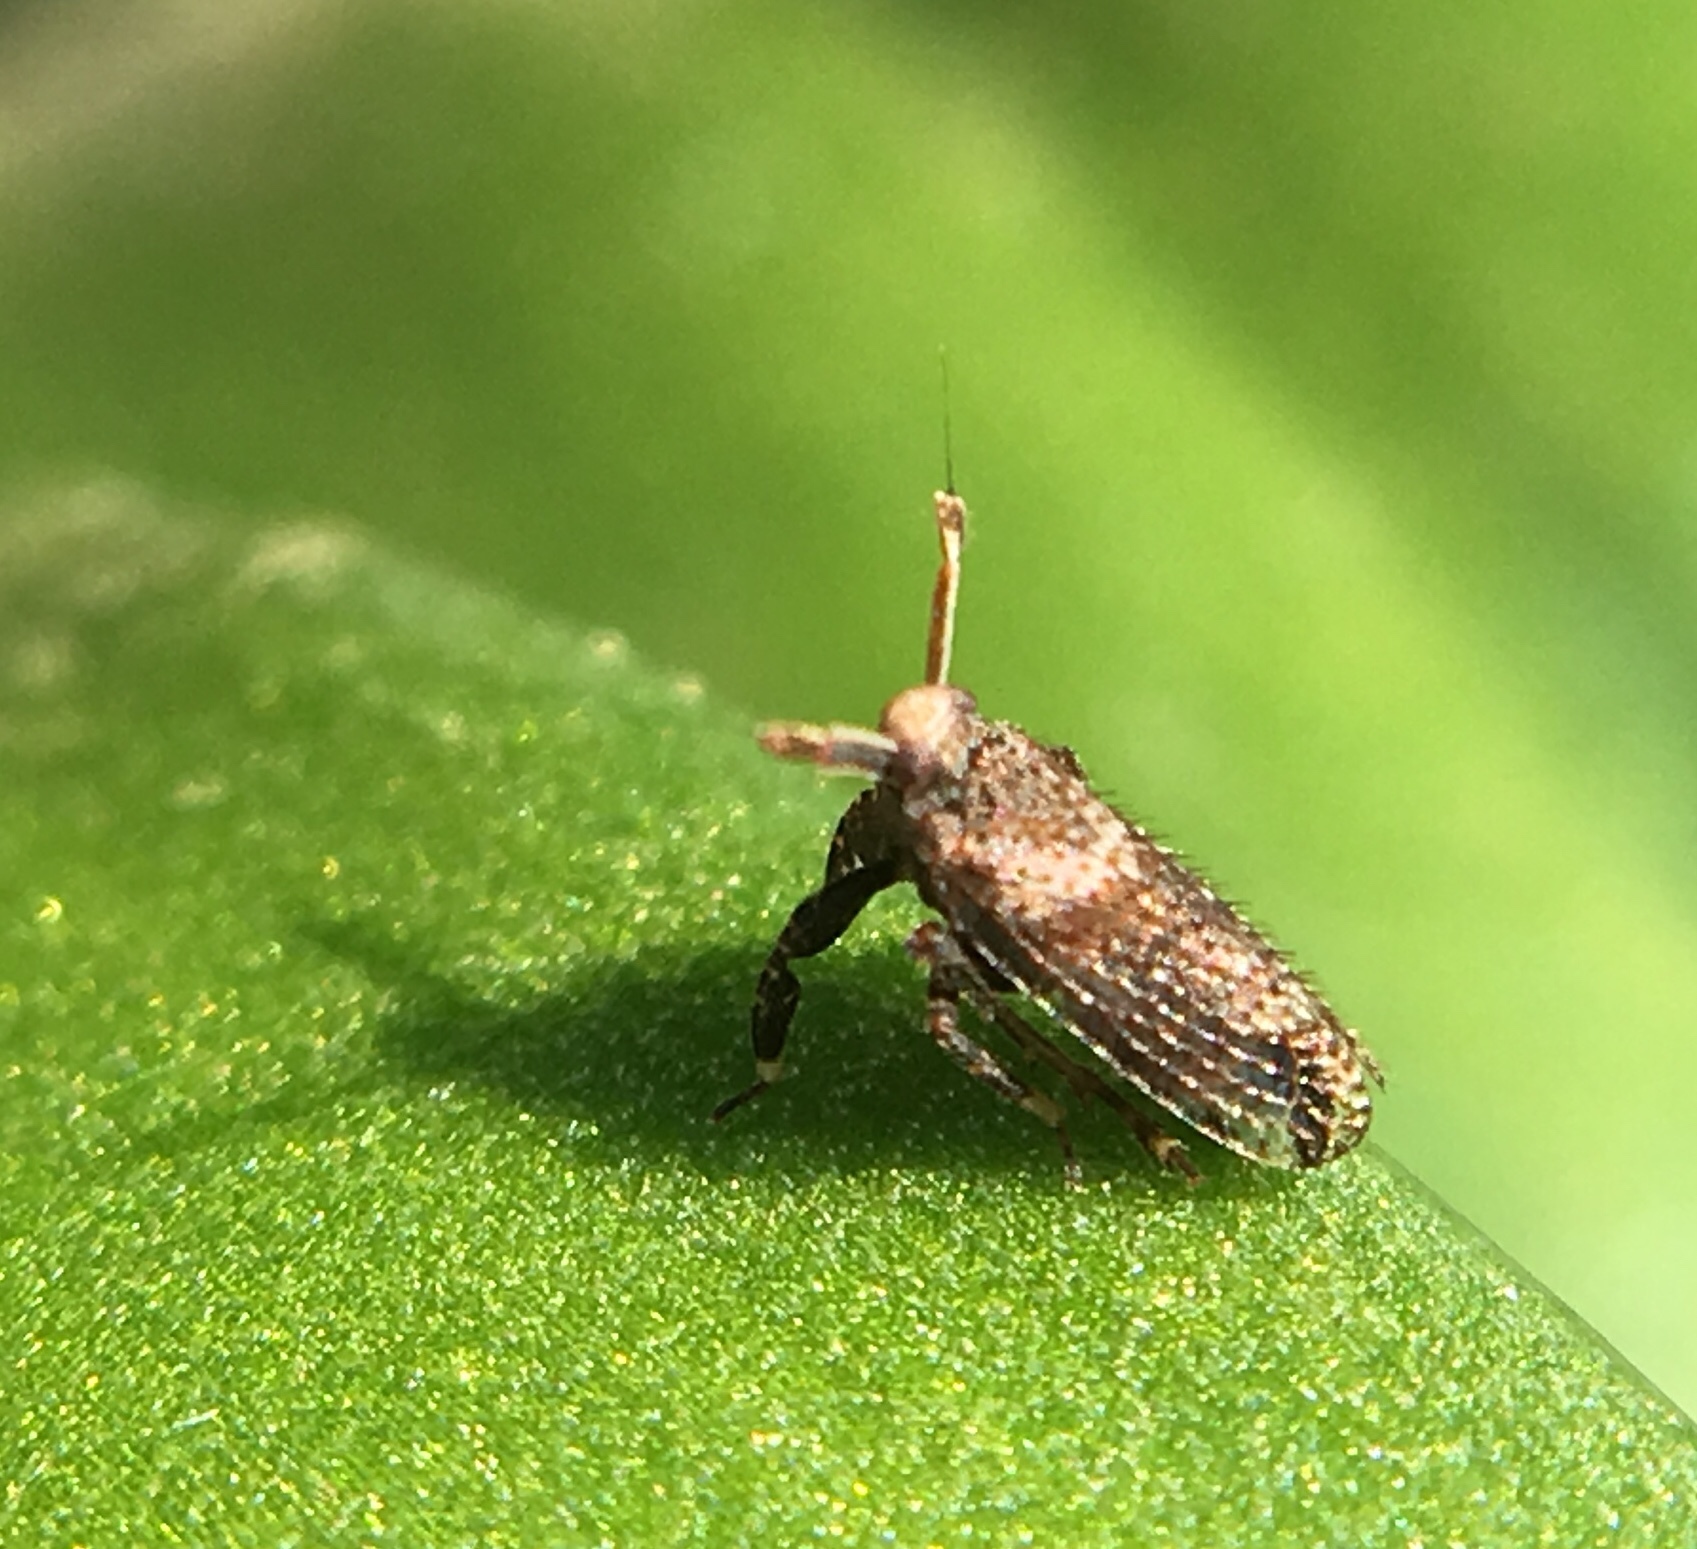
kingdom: Animalia
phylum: Arthropoda
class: Insecta
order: Hemiptera
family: Delphacidae
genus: Asiraca
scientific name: Asiraca clavicornis
